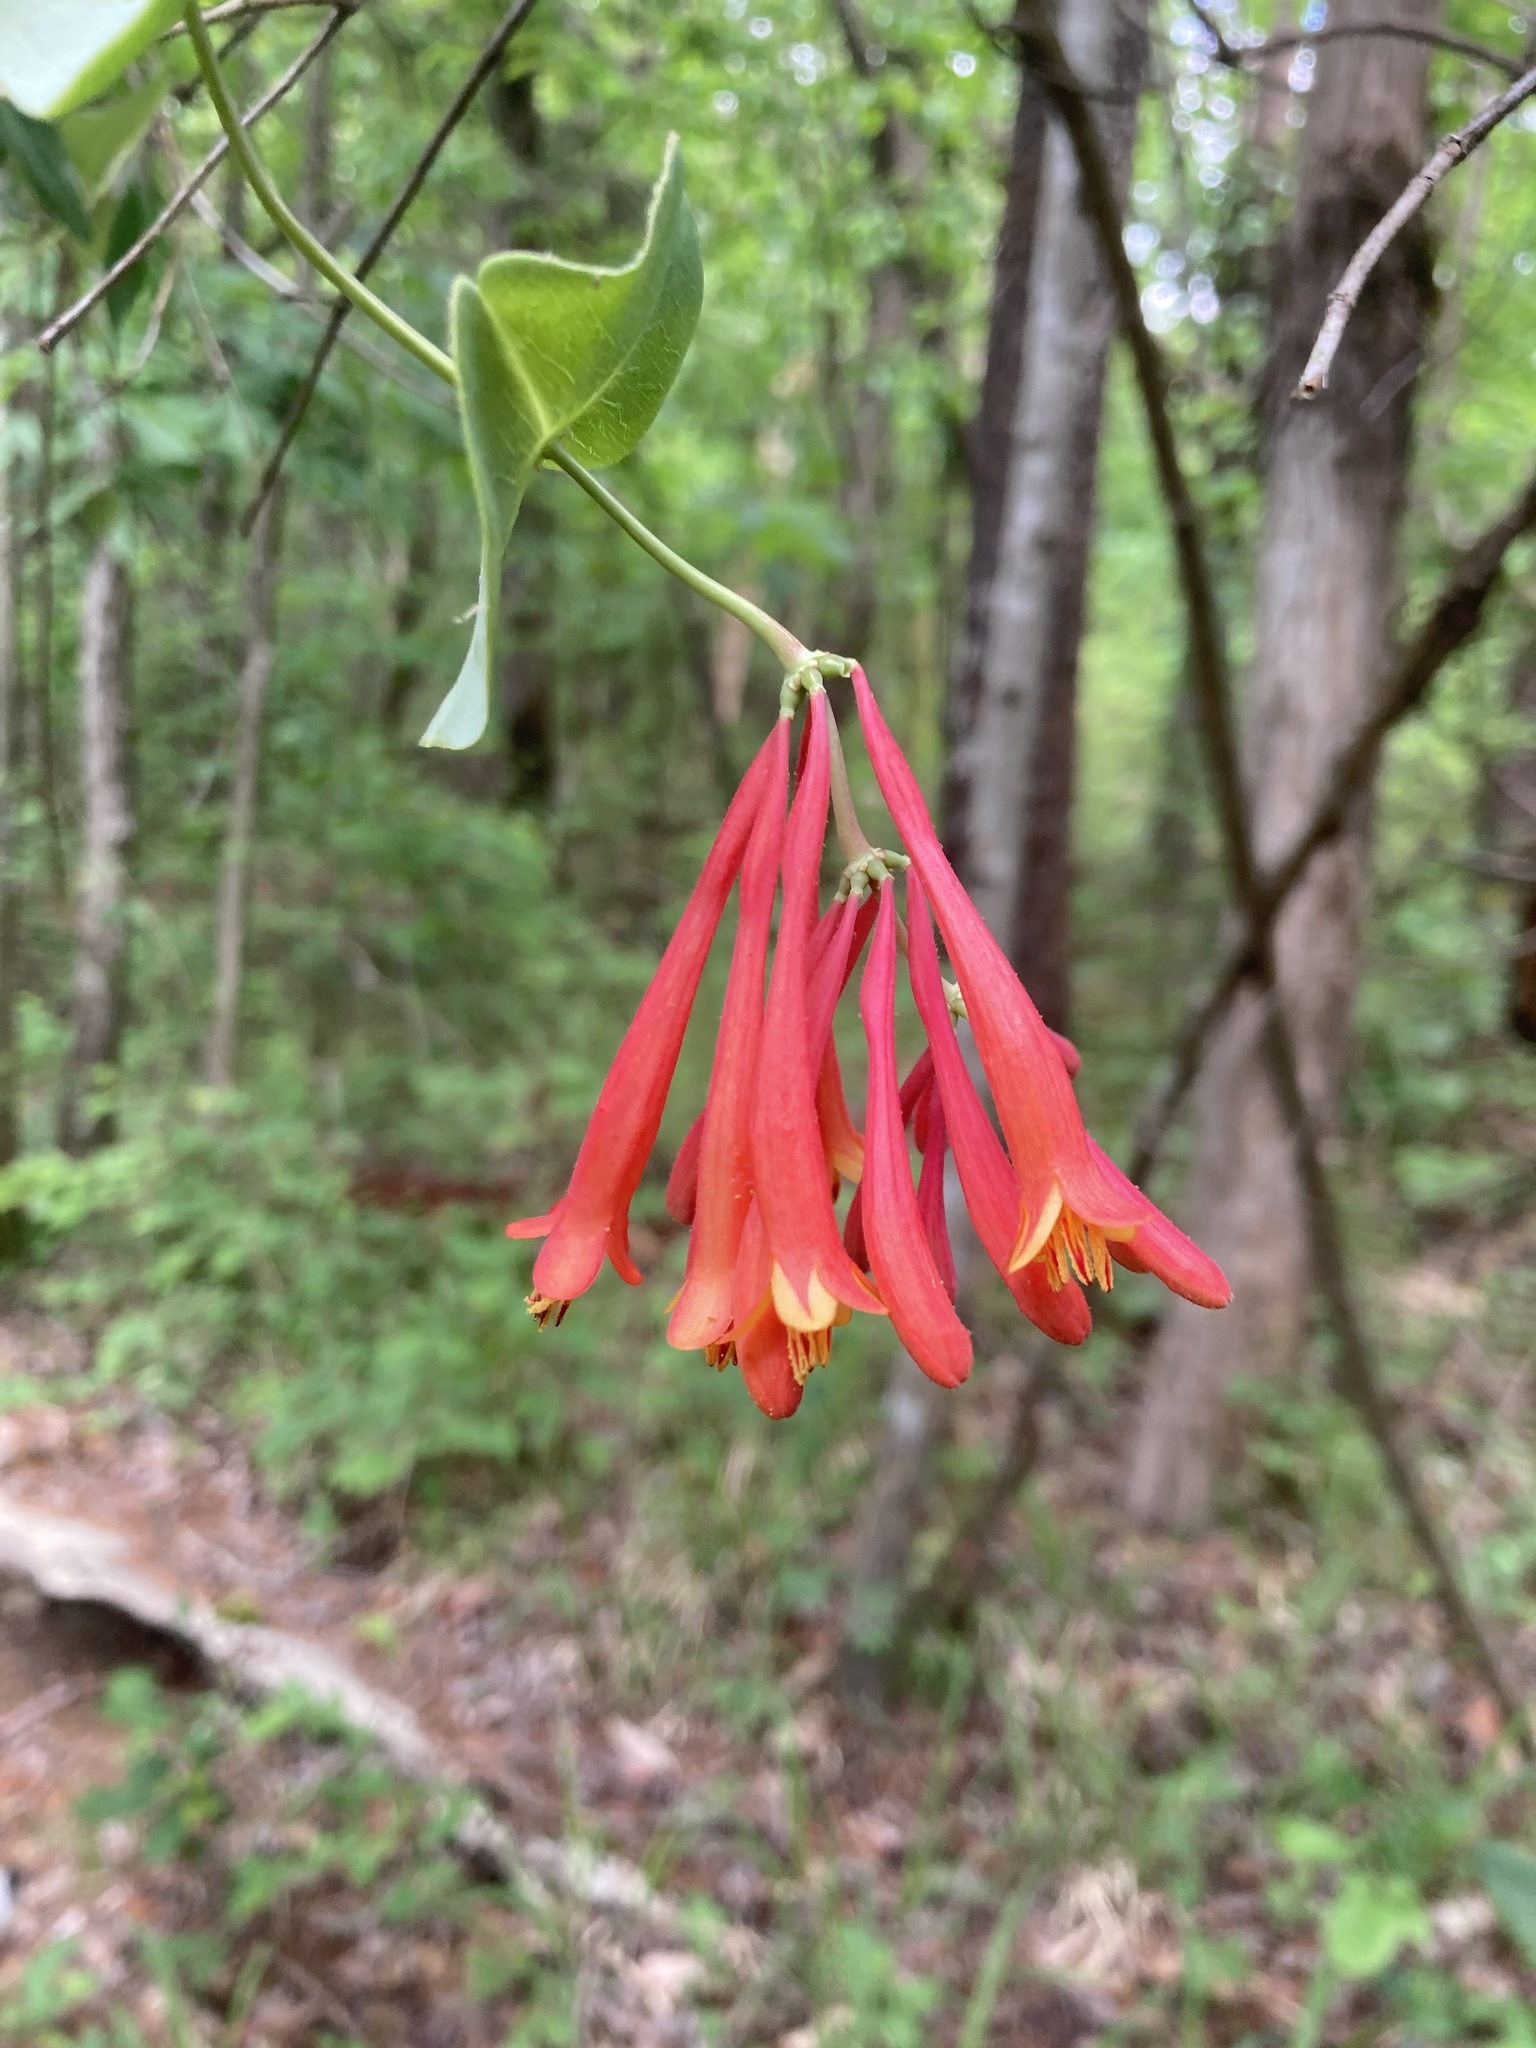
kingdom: Plantae
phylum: Tracheophyta
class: Magnoliopsida
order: Dipsacales
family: Caprifoliaceae
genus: Lonicera
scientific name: Lonicera sempervirens
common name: Coral honeysuckle
